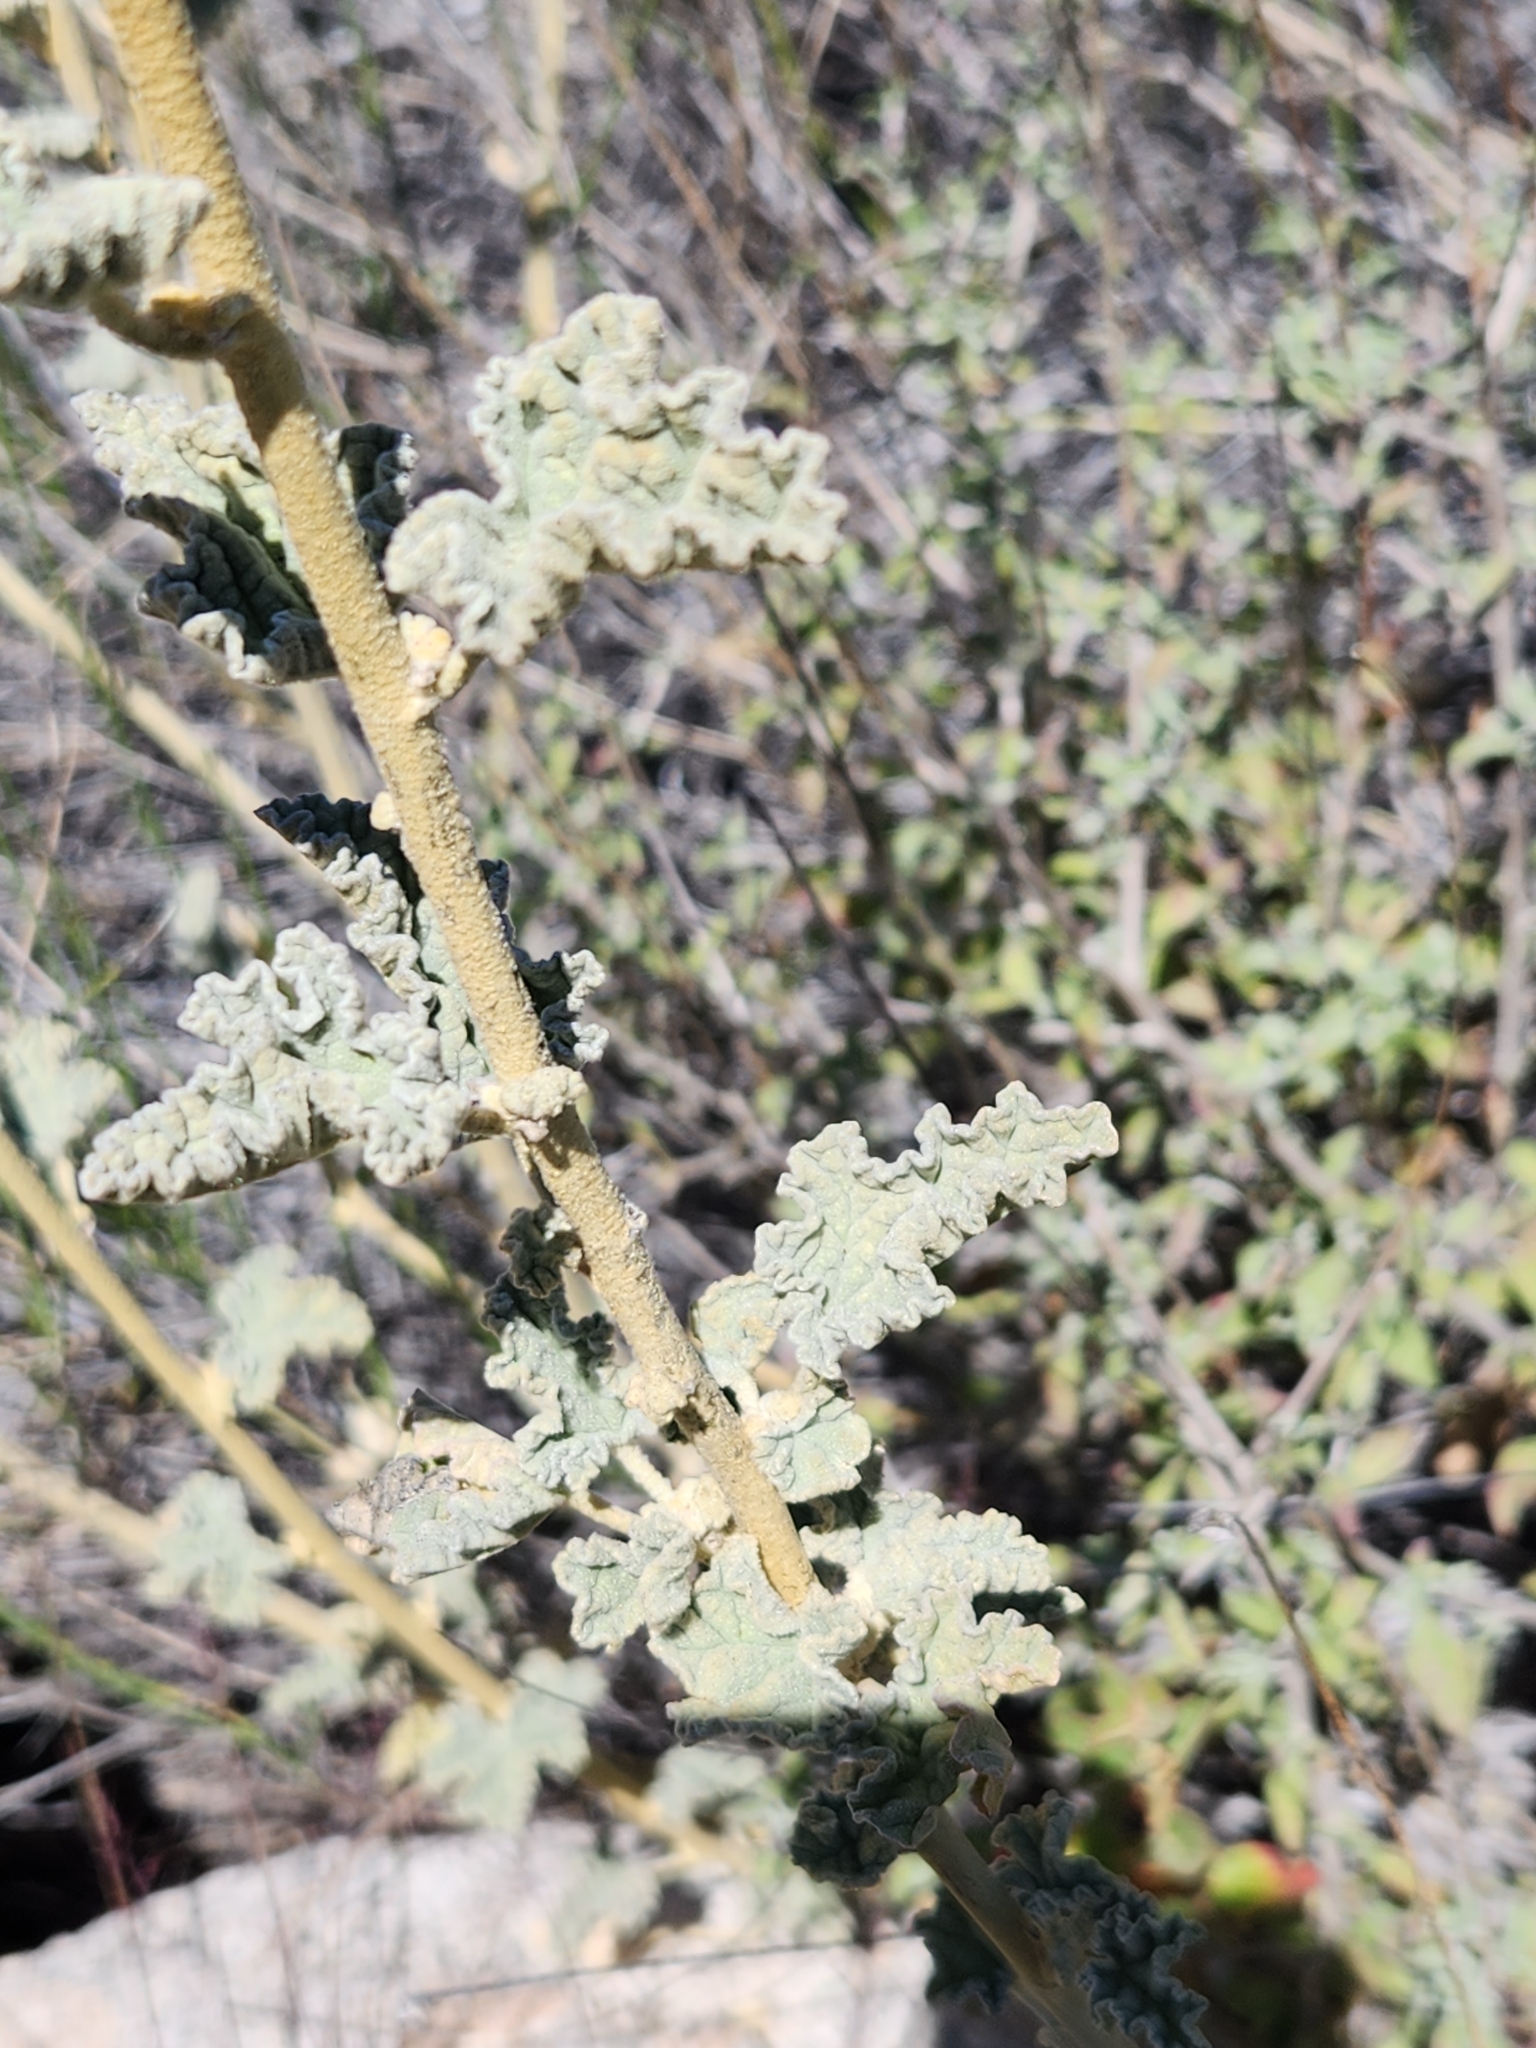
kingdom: Plantae
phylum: Tracheophyta
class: Magnoliopsida
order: Malvales
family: Malvaceae
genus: Sphaeralcea
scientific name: Sphaeralcea ambigua
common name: Apricot globe-mallow
